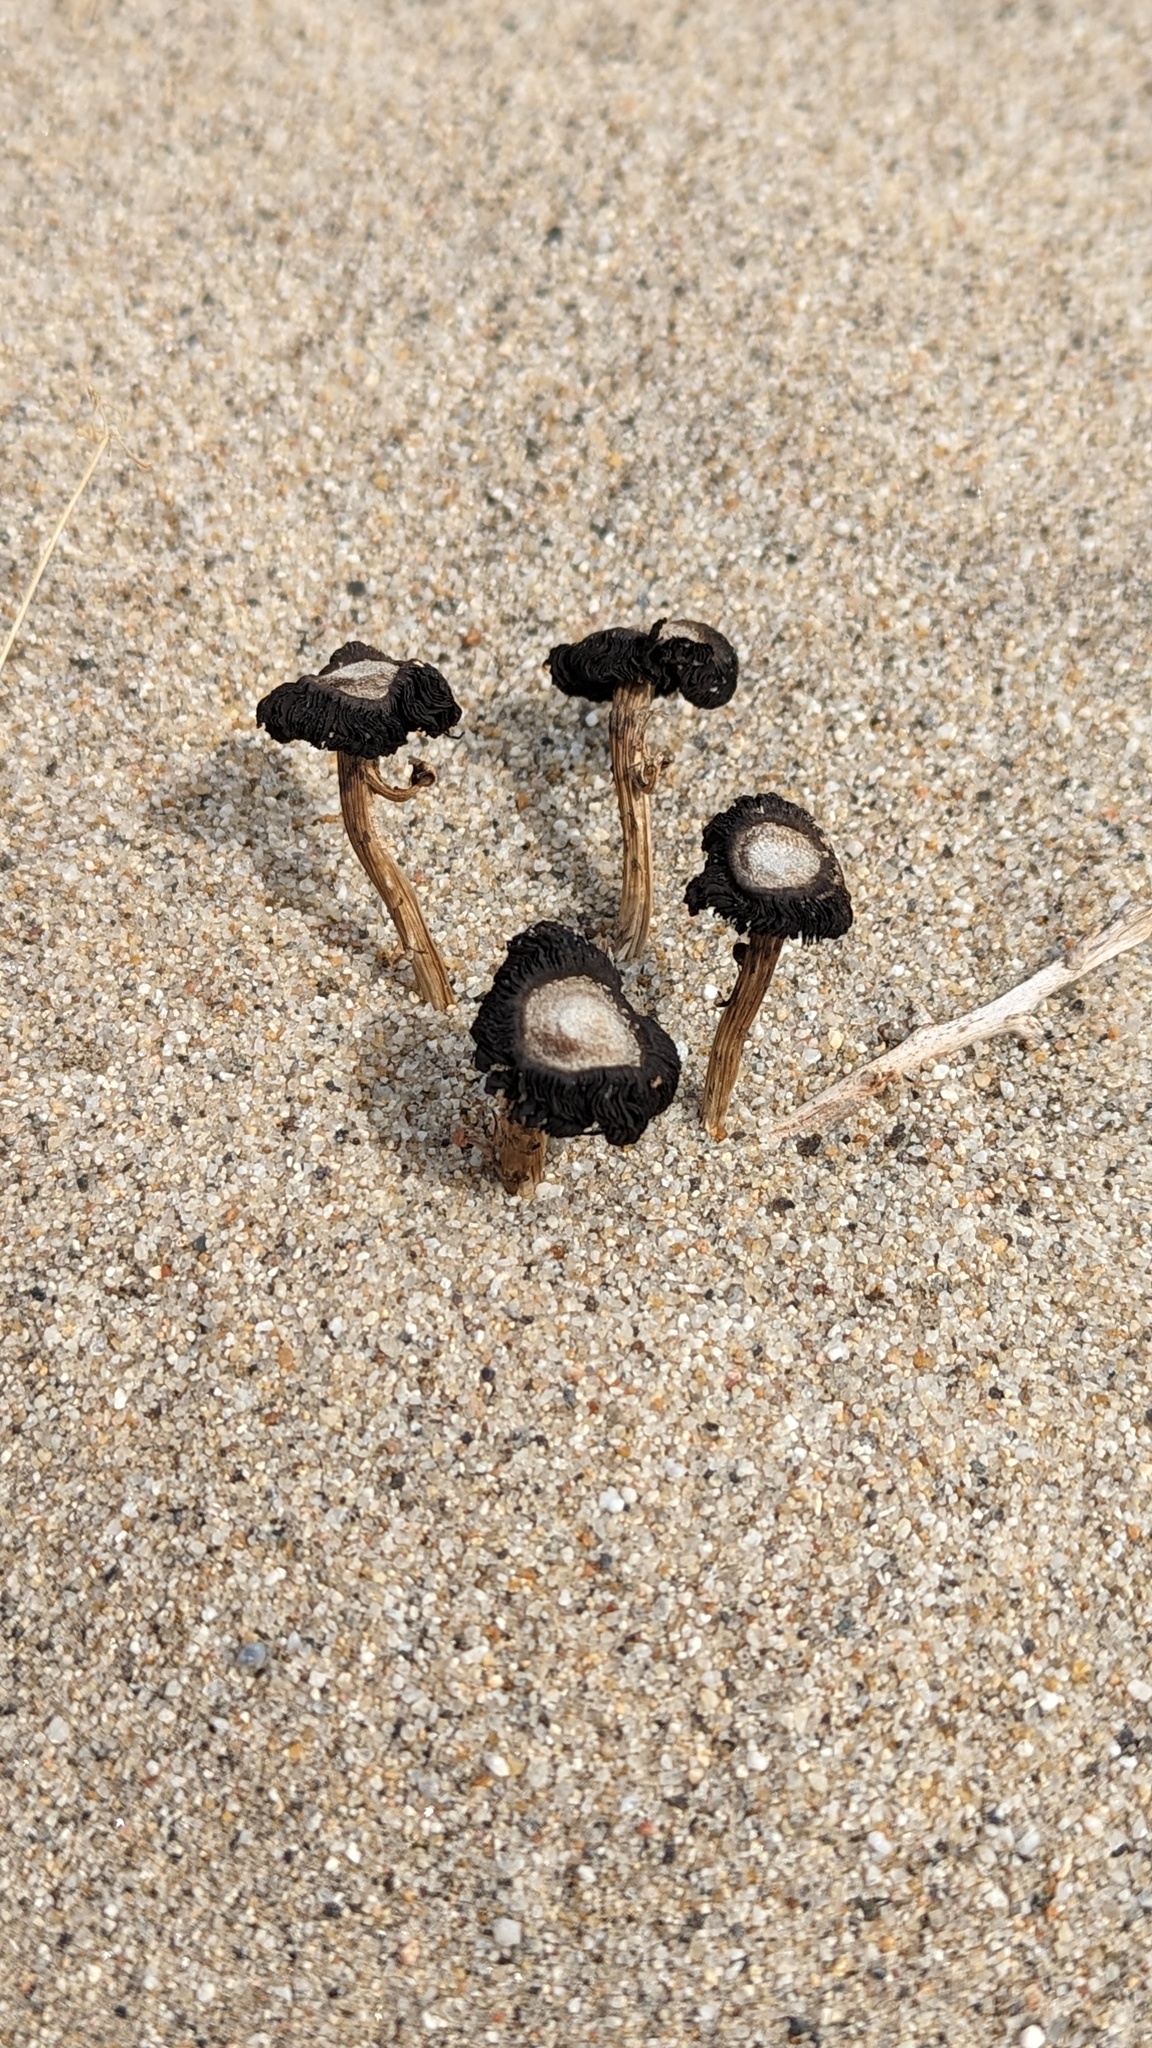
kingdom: Fungi
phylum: Basidiomycota
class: Agaricomycetes
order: Agaricales
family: Agaricaceae
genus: Montagnea
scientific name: Montagnea arenaria
